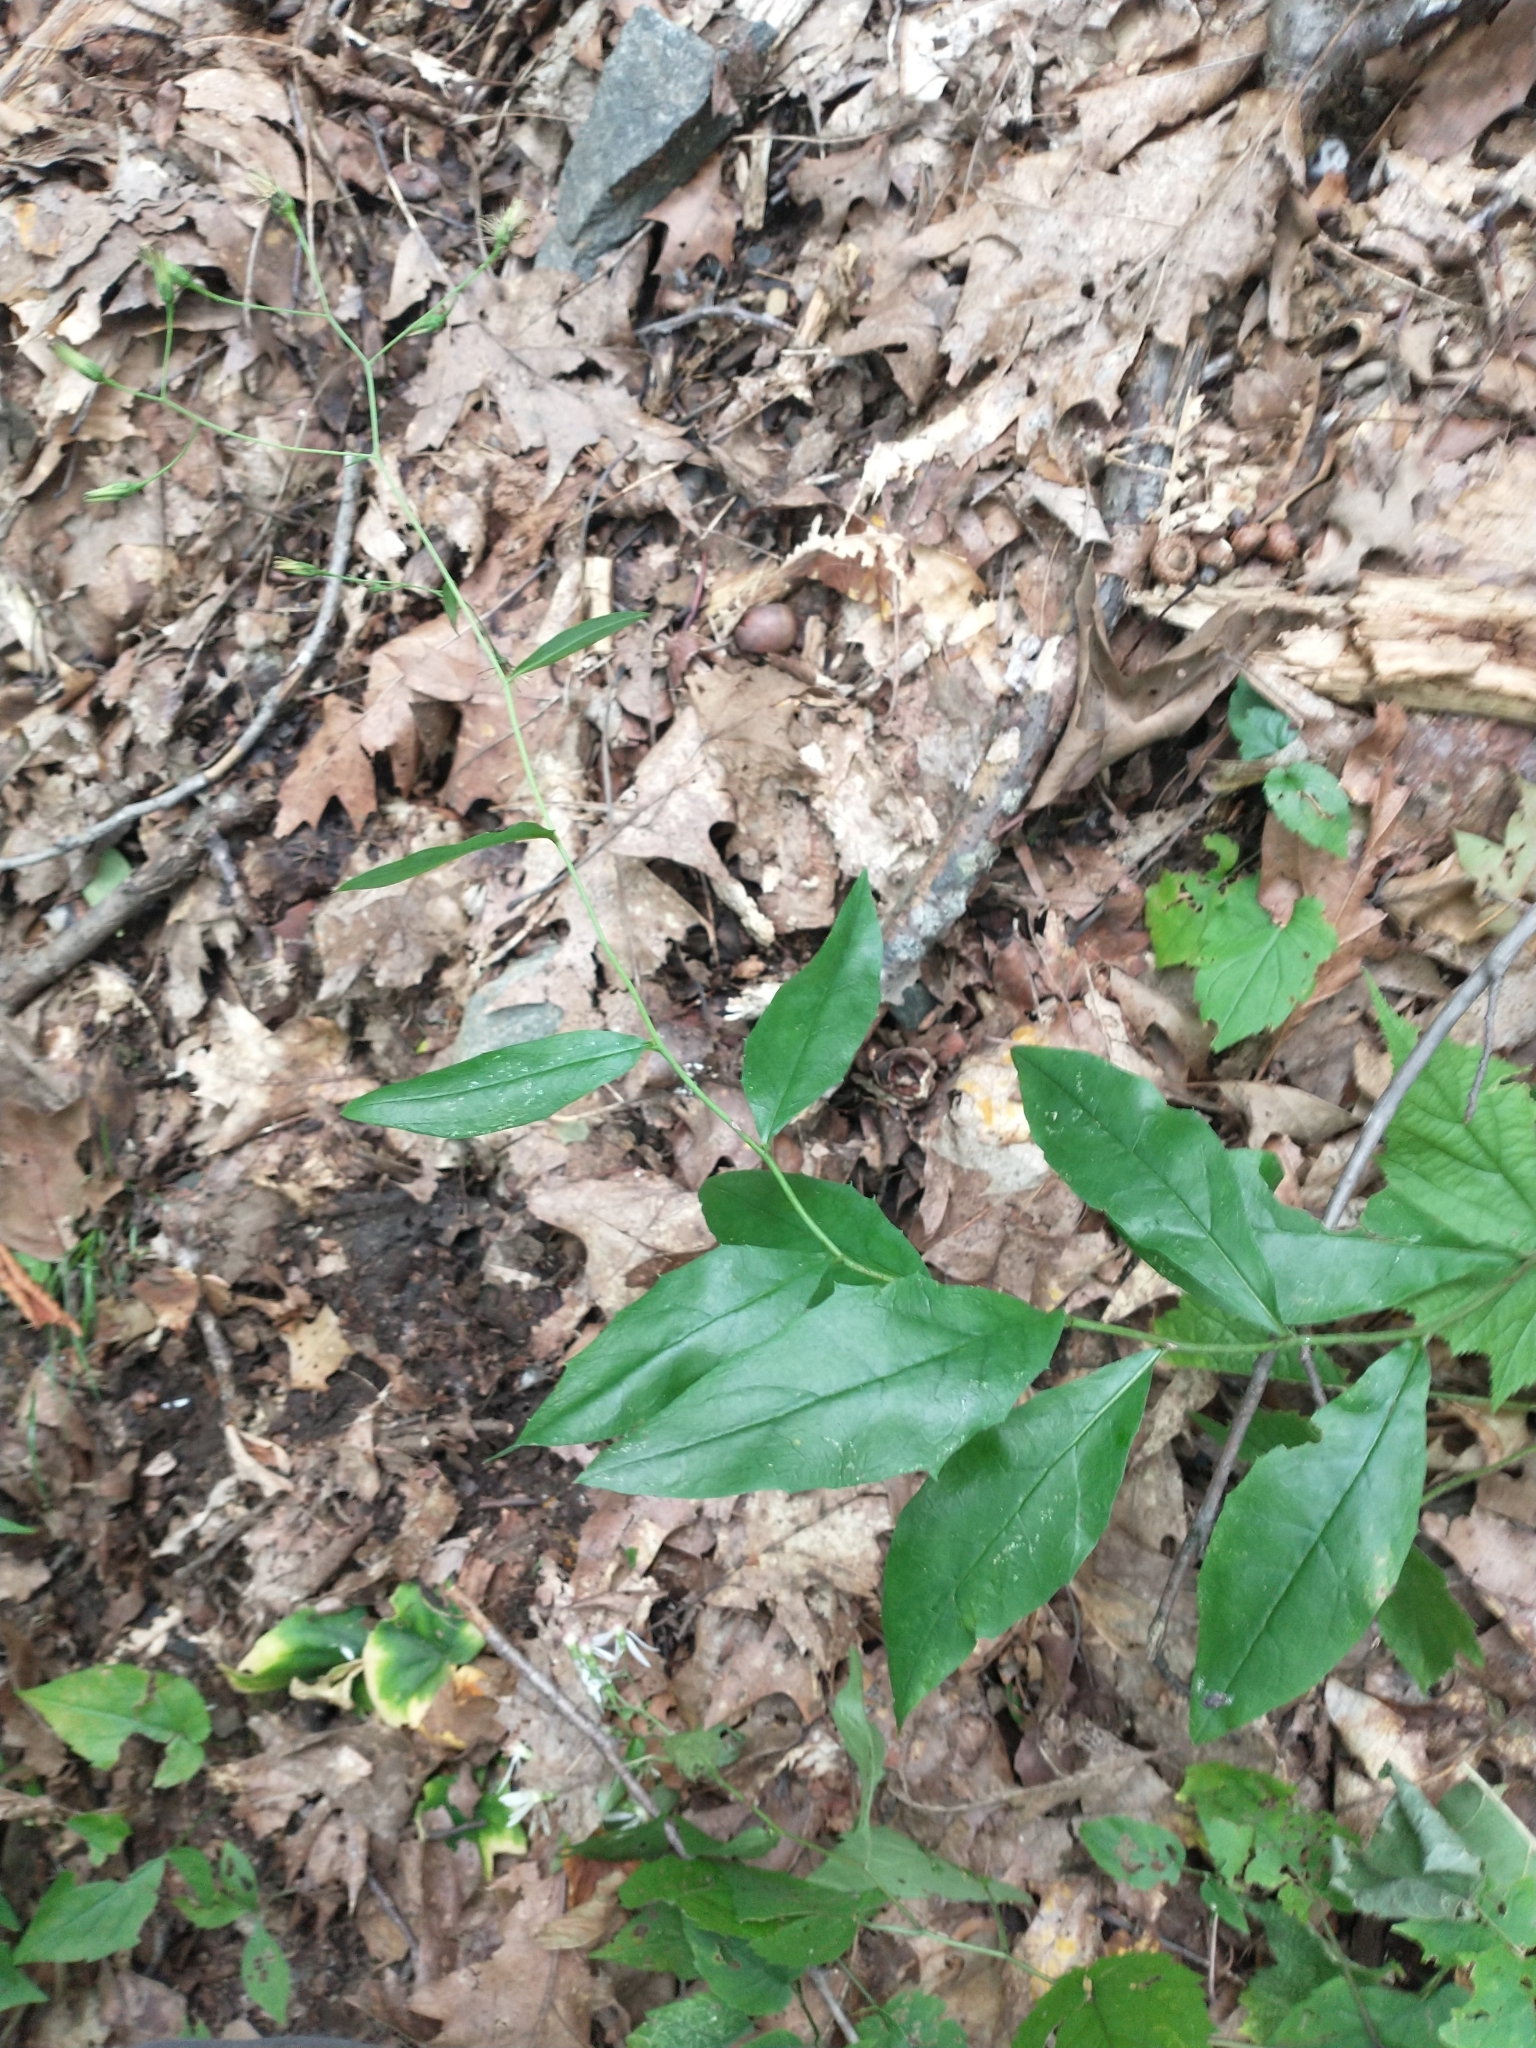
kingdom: Plantae
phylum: Tracheophyta
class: Magnoliopsida
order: Asterales
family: Asteraceae
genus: Hieracium
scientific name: Hieracium paniculatum
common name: Allegheny hawkweed
